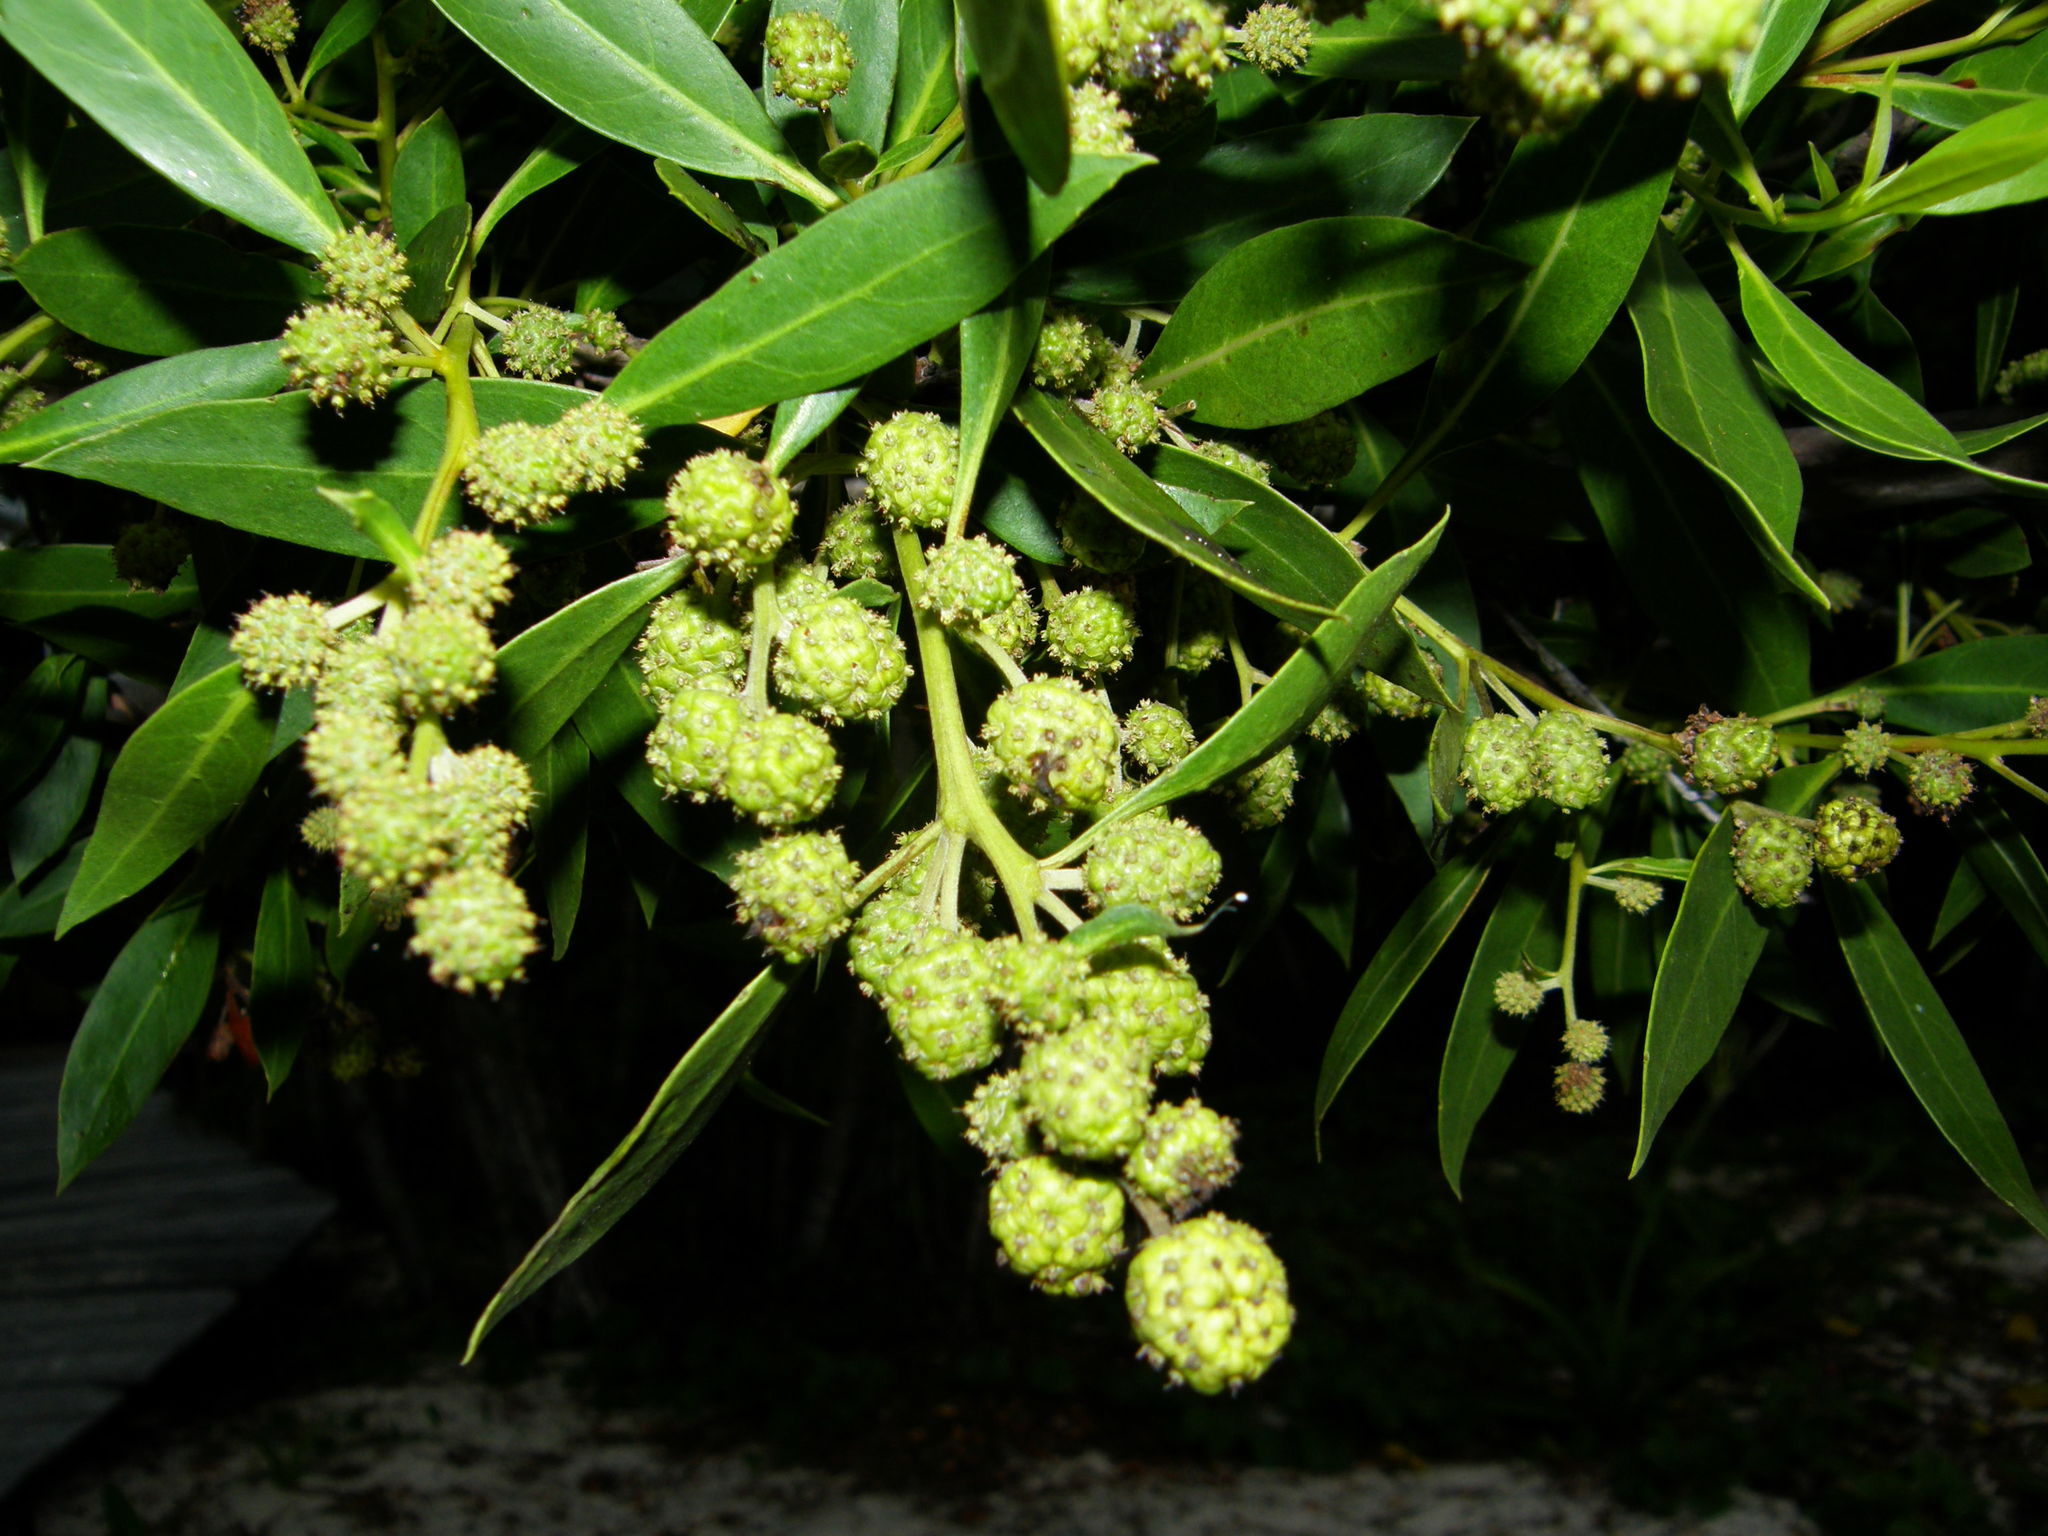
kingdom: Plantae
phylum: Tracheophyta
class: Magnoliopsida
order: Myrtales
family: Combretaceae
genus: Conocarpus
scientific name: Conocarpus erectus
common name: Button mangrove
